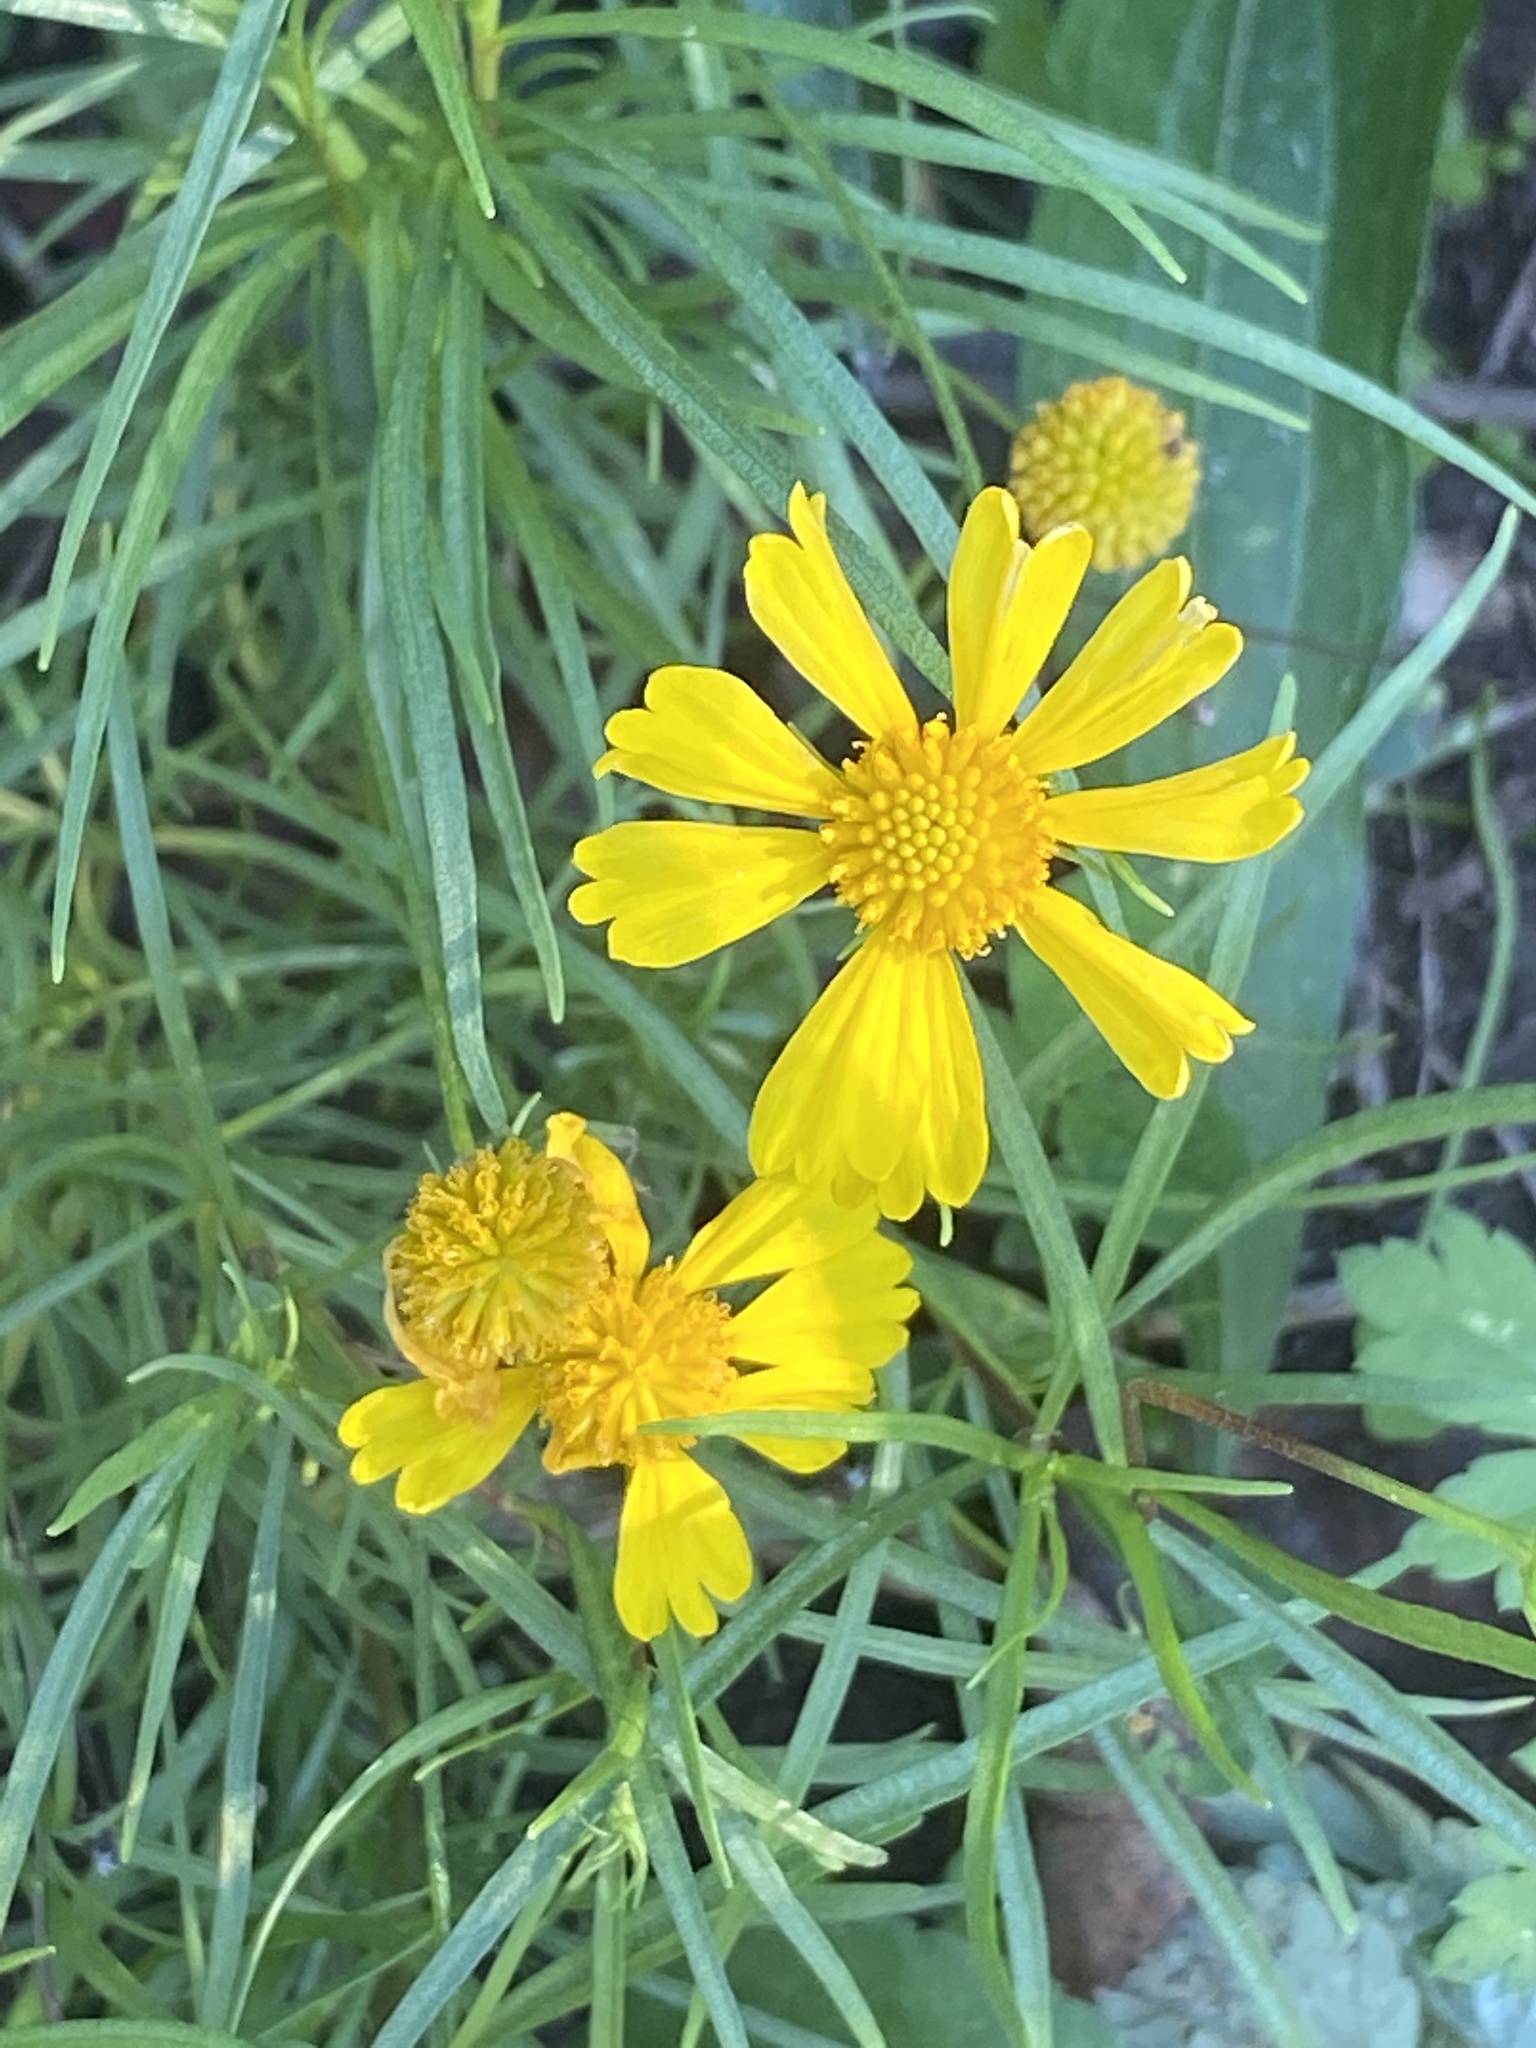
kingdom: Plantae
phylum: Tracheophyta
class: Magnoliopsida
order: Asterales
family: Asteraceae
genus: Helenium
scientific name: Helenium autumnale
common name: Sneezeweed
